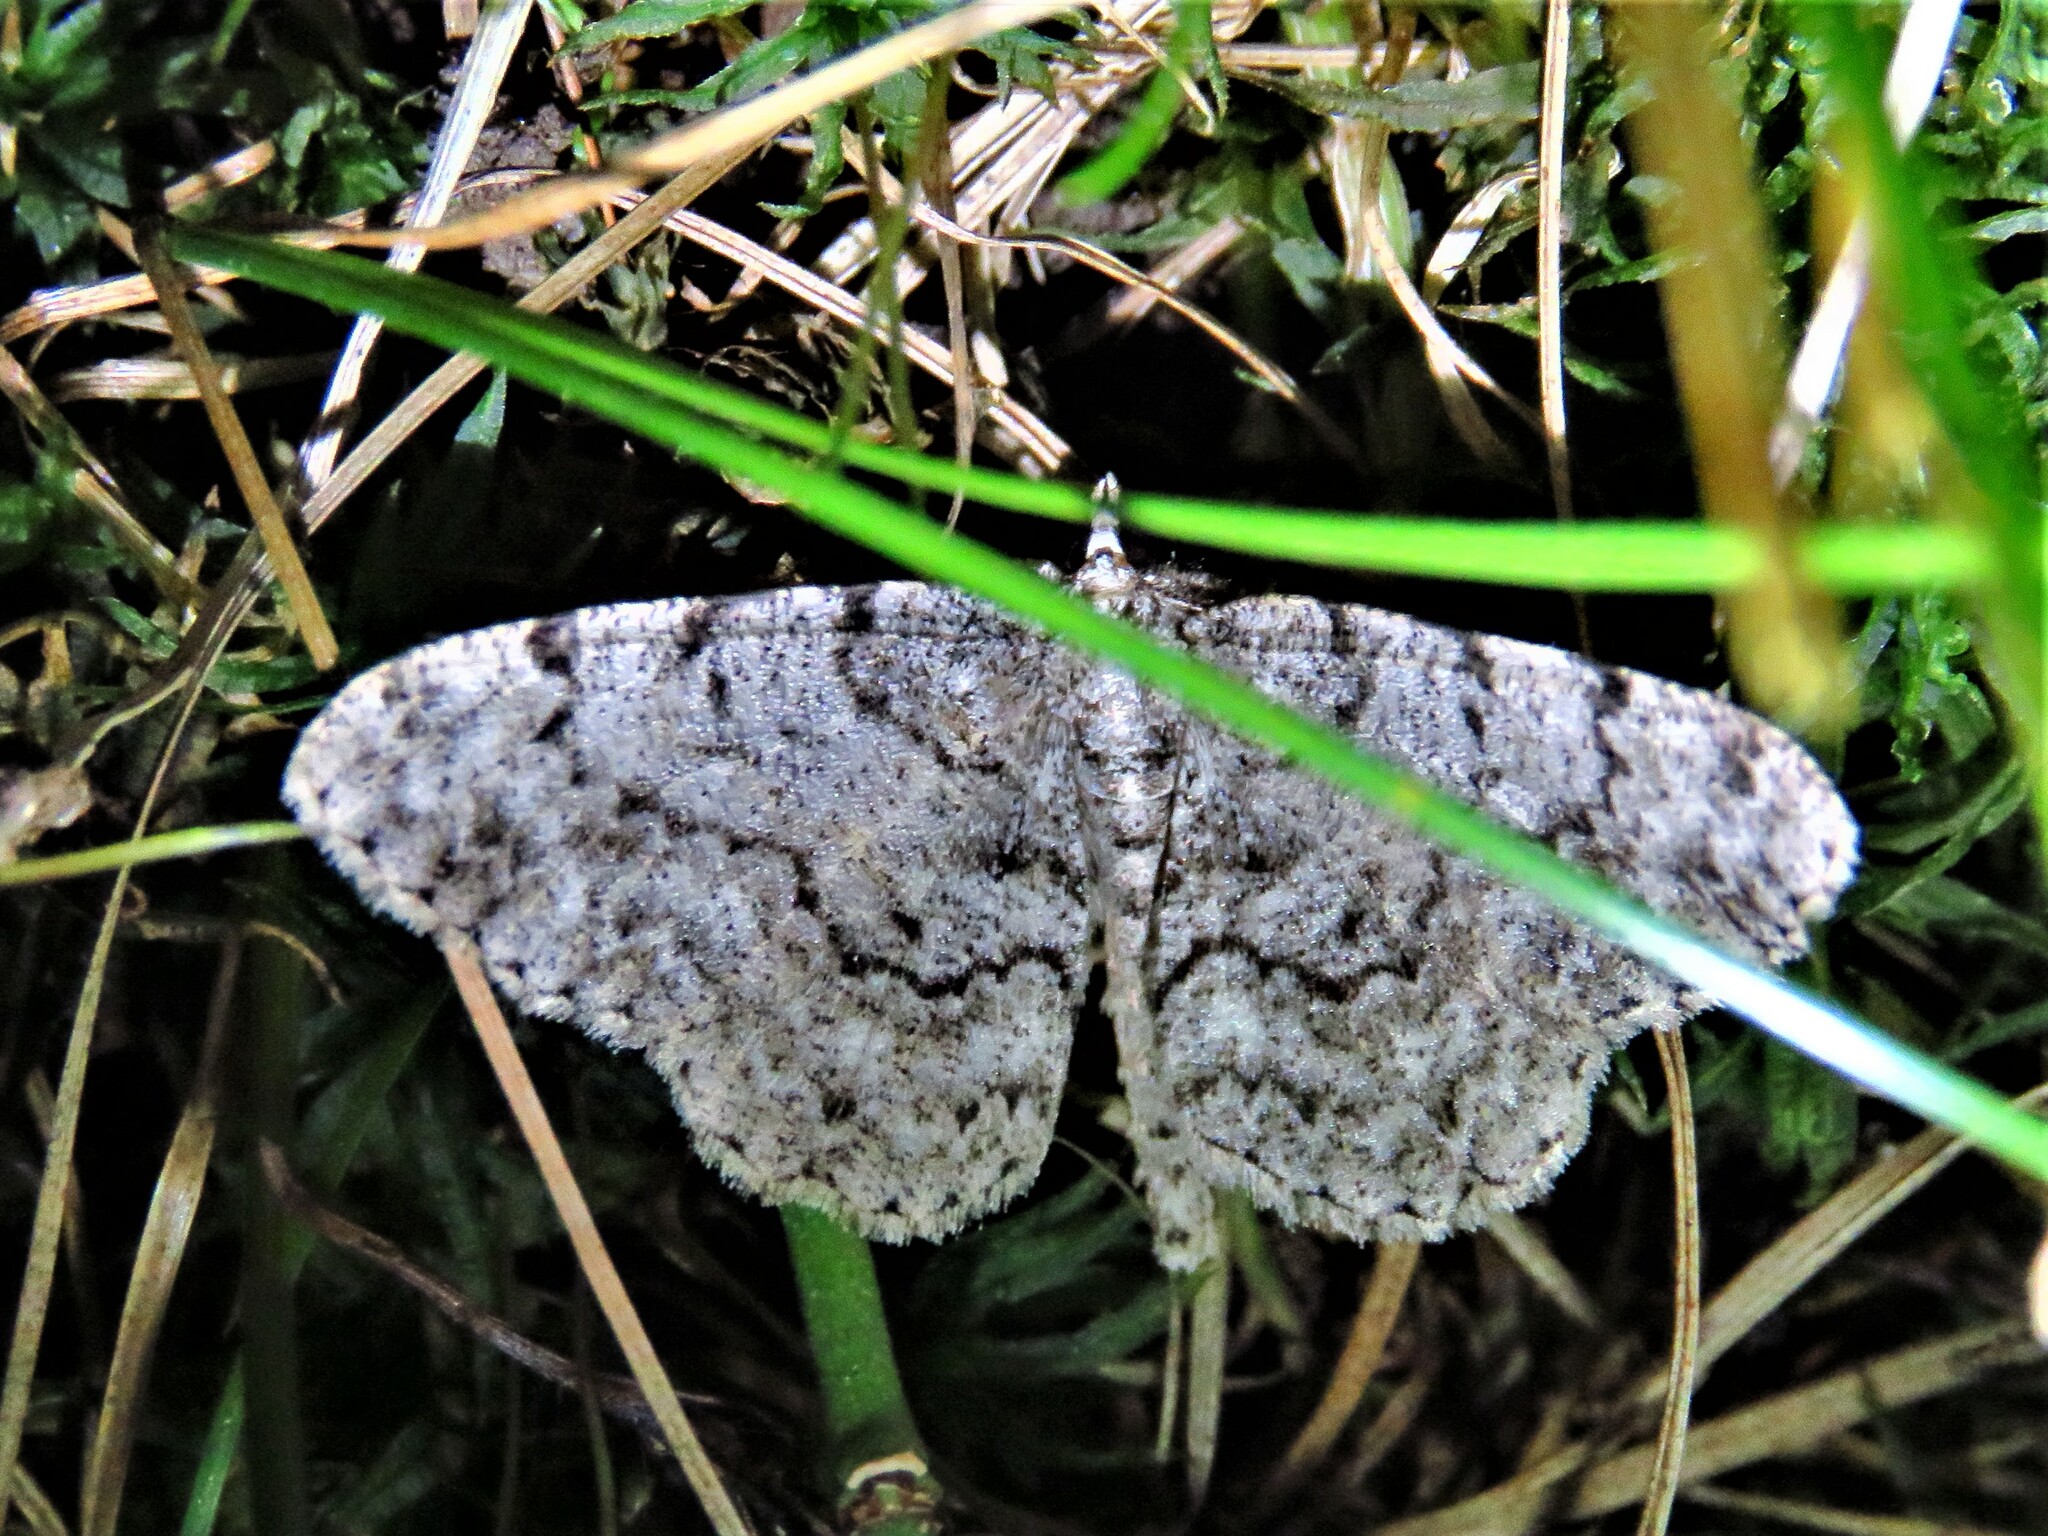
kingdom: Animalia
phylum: Arthropoda
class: Insecta
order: Lepidoptera
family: Geometridae
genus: Protoboarmia
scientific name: Protoboarmia porcelaria
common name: Porcelain gray
